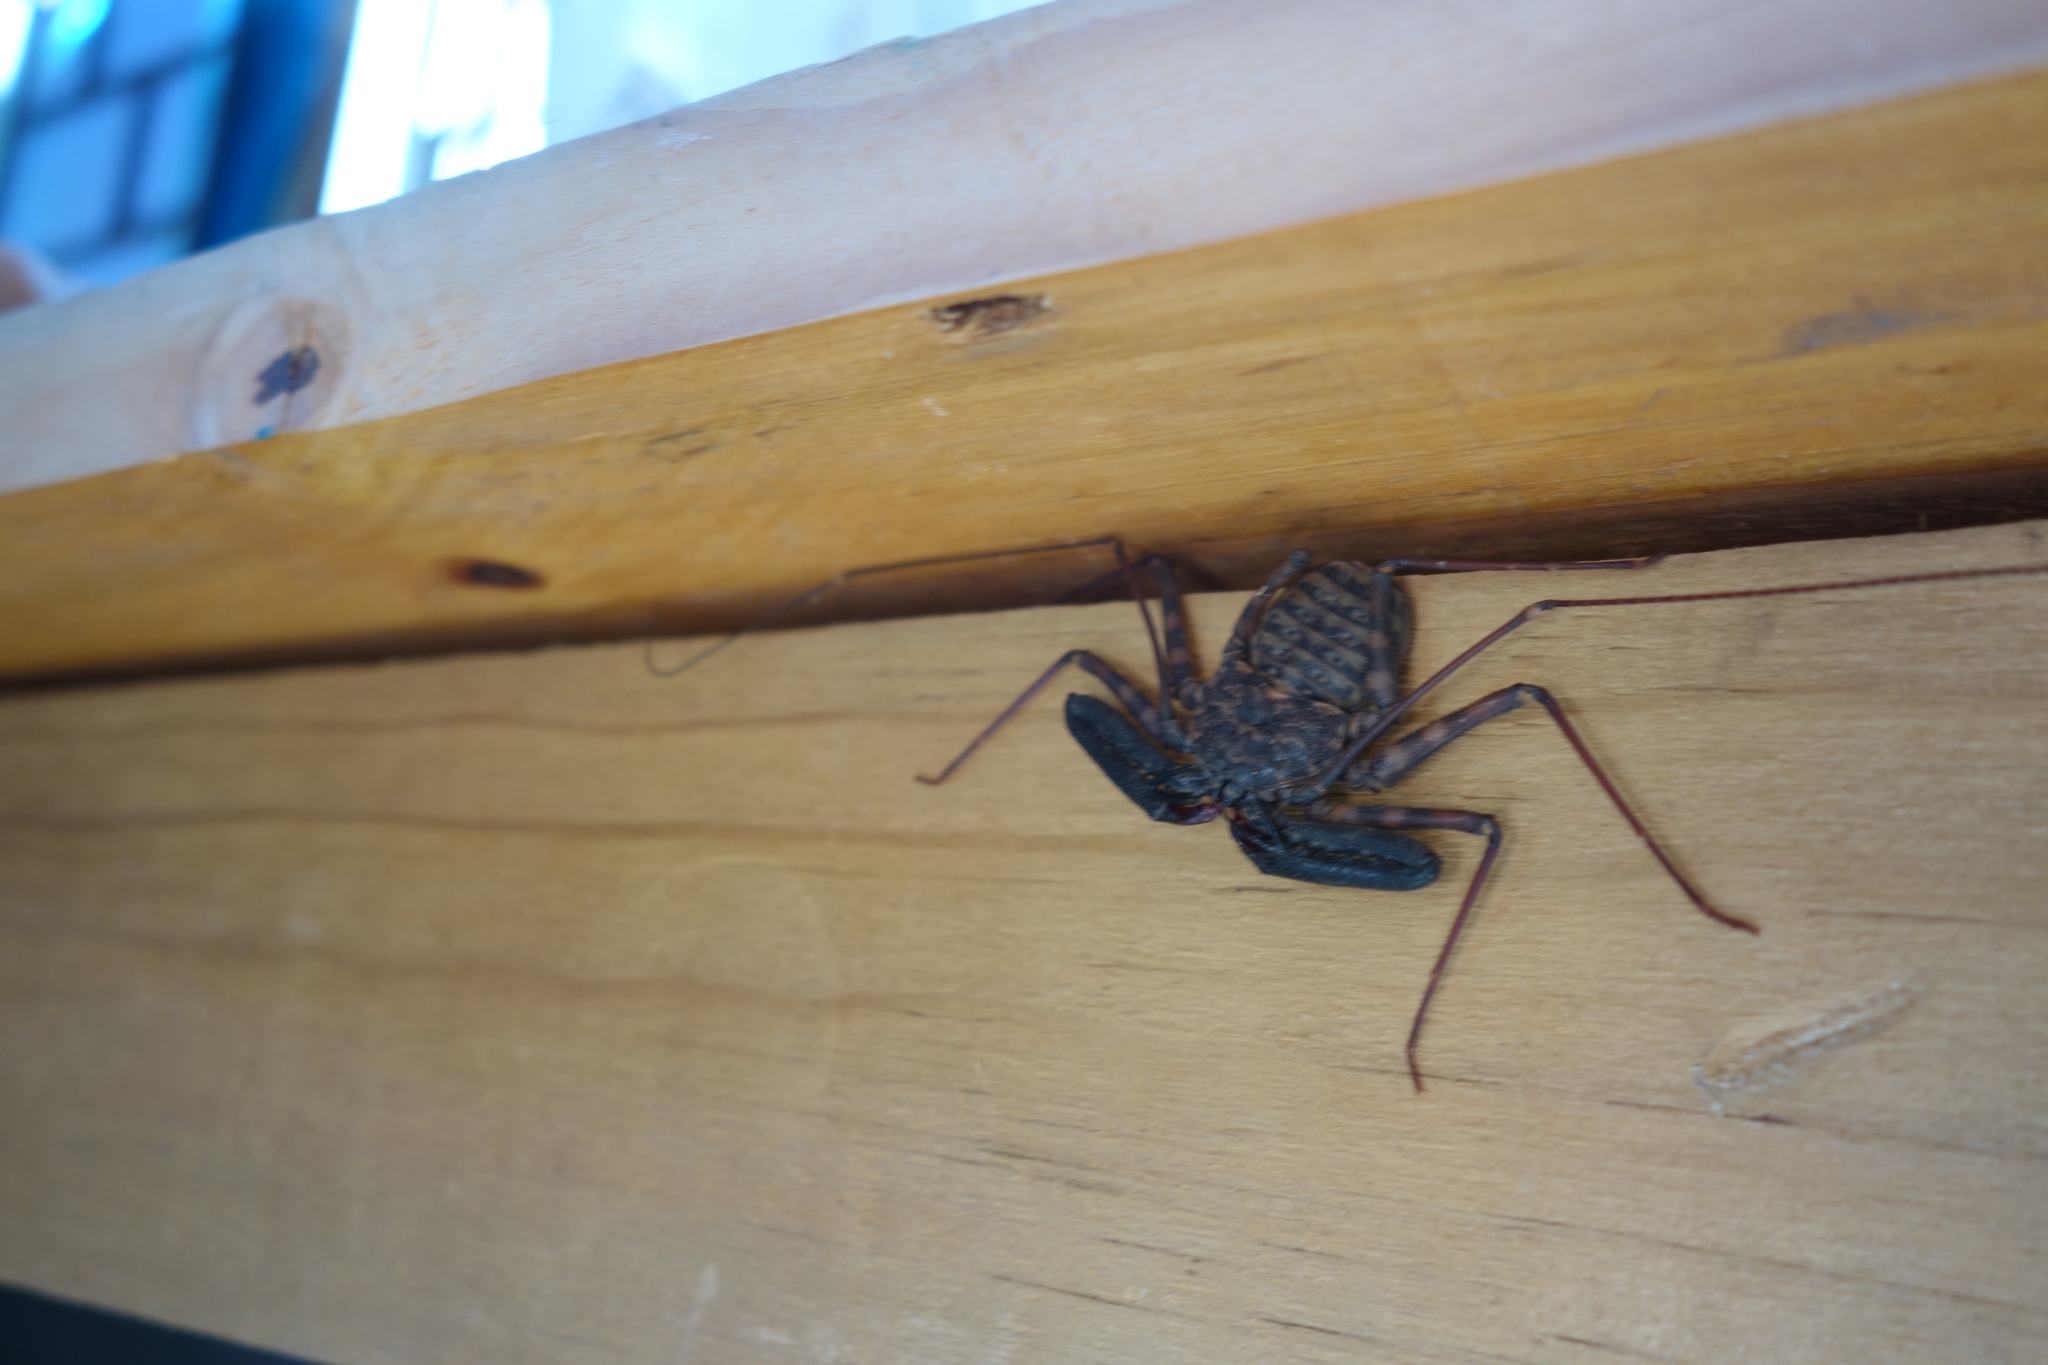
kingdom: Animalia
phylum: Arthropoda
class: Arachnida
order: Amblypygi
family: Phrynichidae
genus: Damon
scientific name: Damon variegatus
